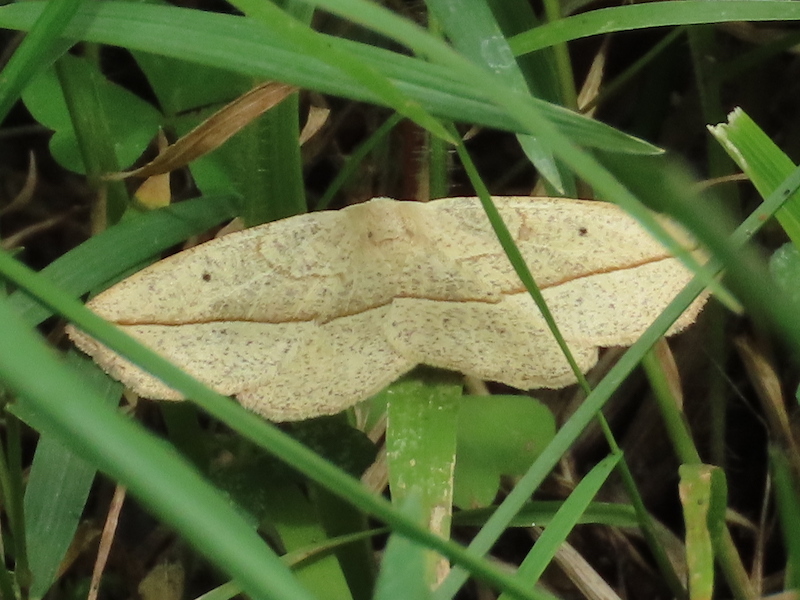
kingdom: Animalia
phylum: Arthropoda
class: Insecta
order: Lepidoptera
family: Geometridae
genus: Eusarca
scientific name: Eusarca confusaria
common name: Confused eusarca
